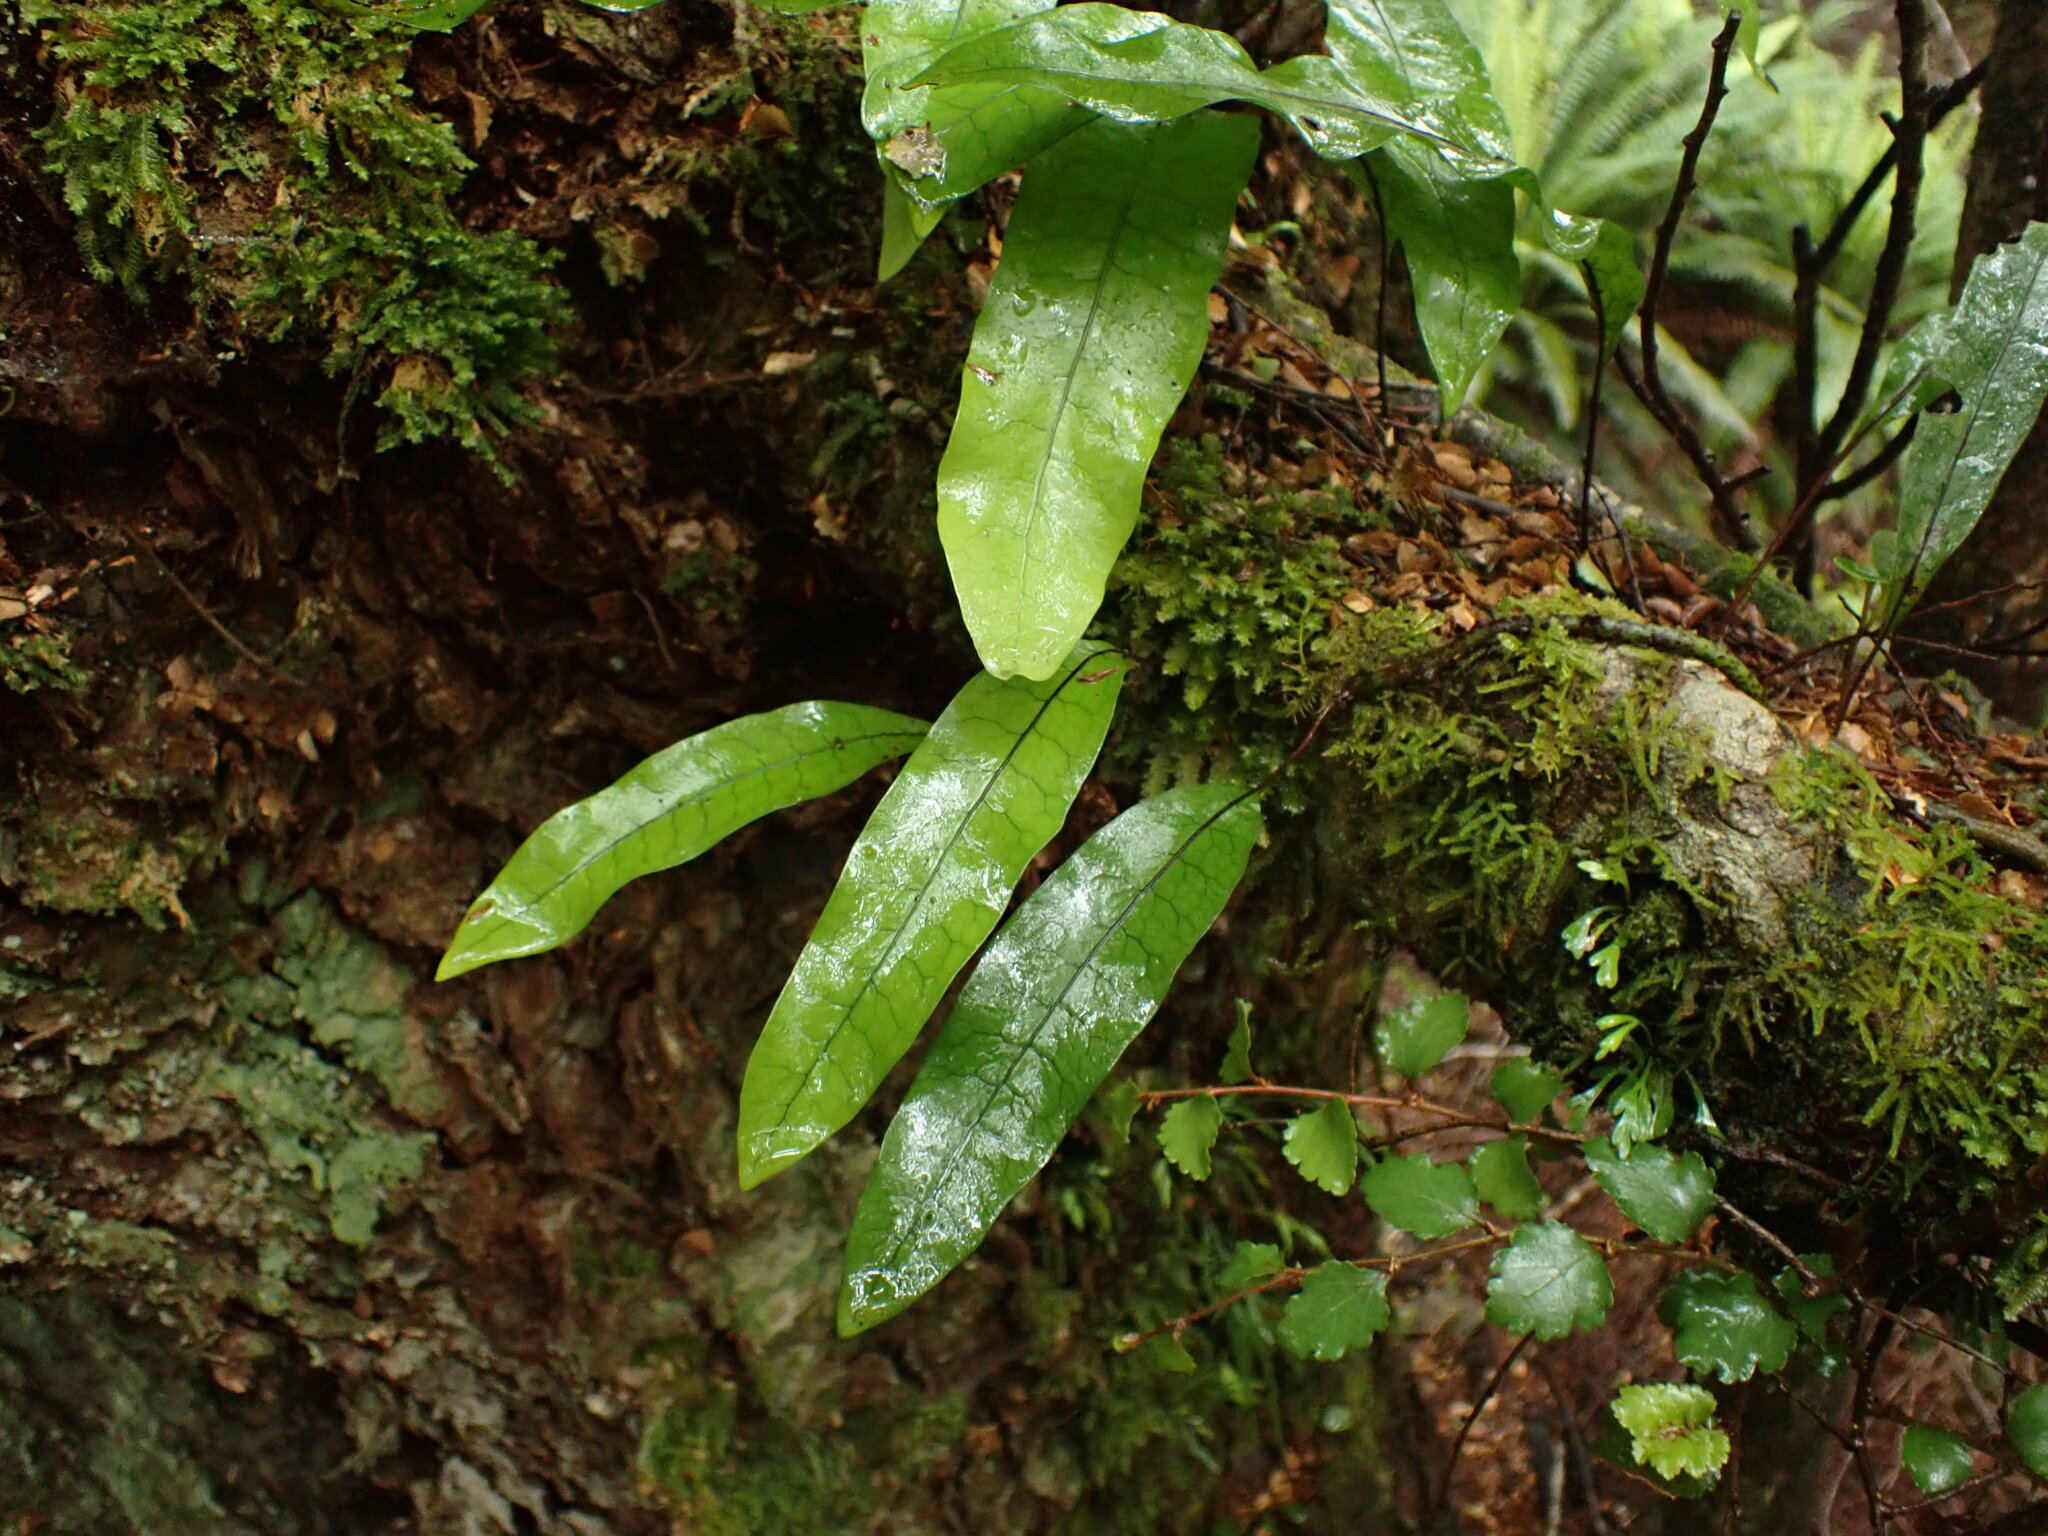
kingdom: Plantae
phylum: Tracheophyta
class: Polypodiopsida
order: Polypodiales
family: Polypodiaceae
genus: Lecanopteris
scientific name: Lecanopteris pustulata
